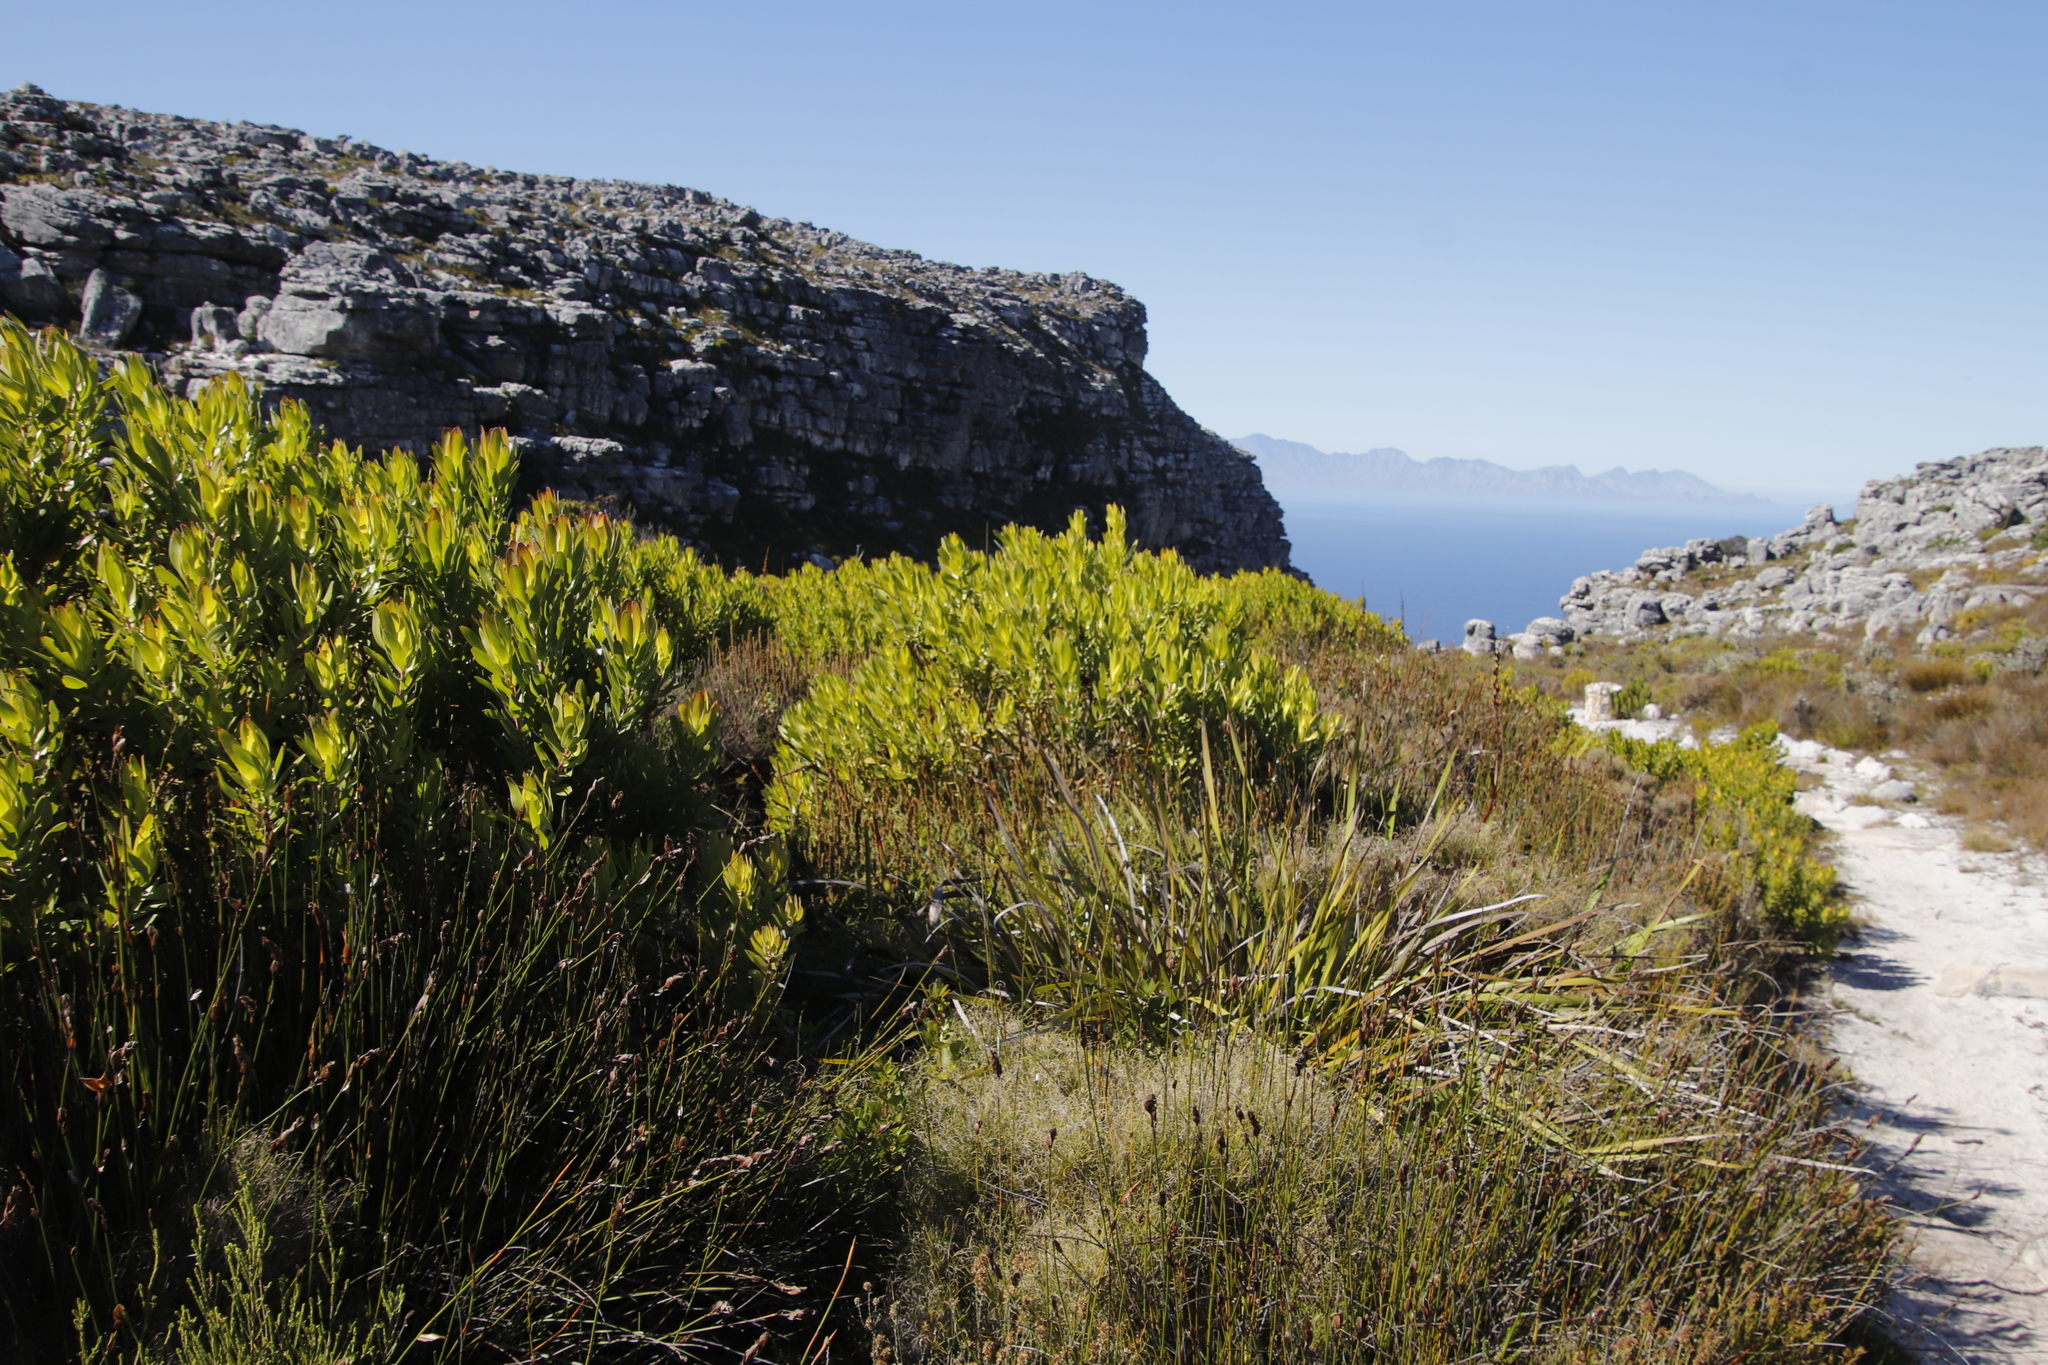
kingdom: Plantae
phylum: Tracheophyta
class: Magnoliopsida
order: Proteales
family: Proteaceae
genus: Leucadendron
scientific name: Leucadendron laureolum
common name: Golden sunshinebush
